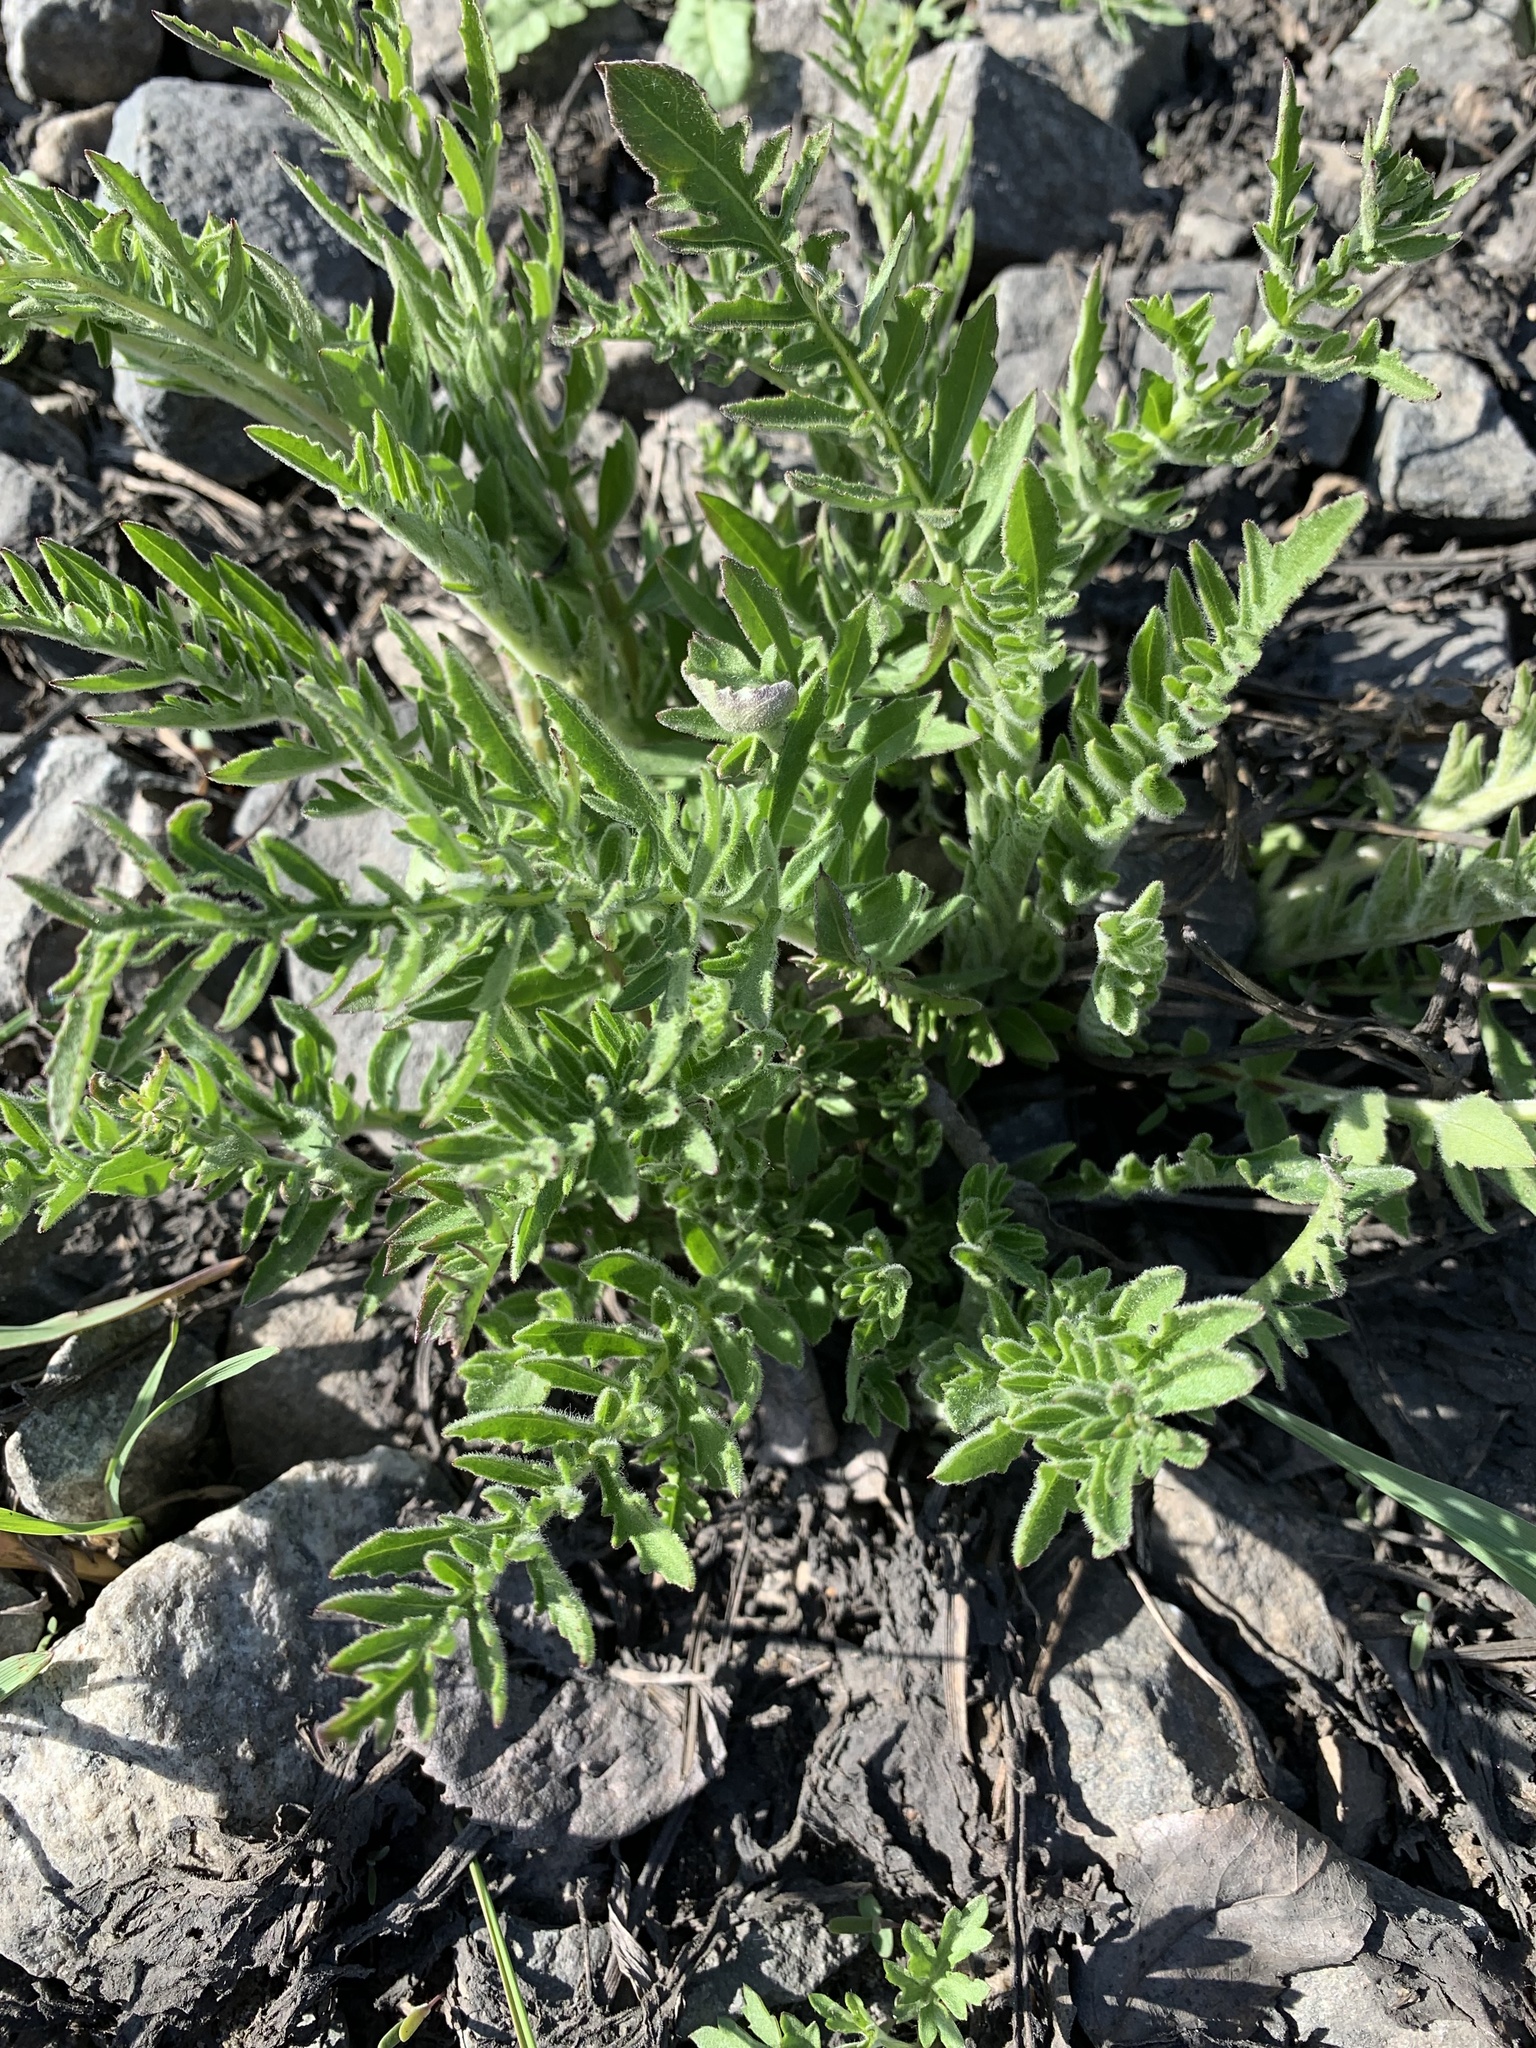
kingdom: Plantae
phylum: Tracheophyta
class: Magnoliopsida
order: Asterales
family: Asteraceae
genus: Centaurea
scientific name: Centaurea scabiosa
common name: Greater knapweed
